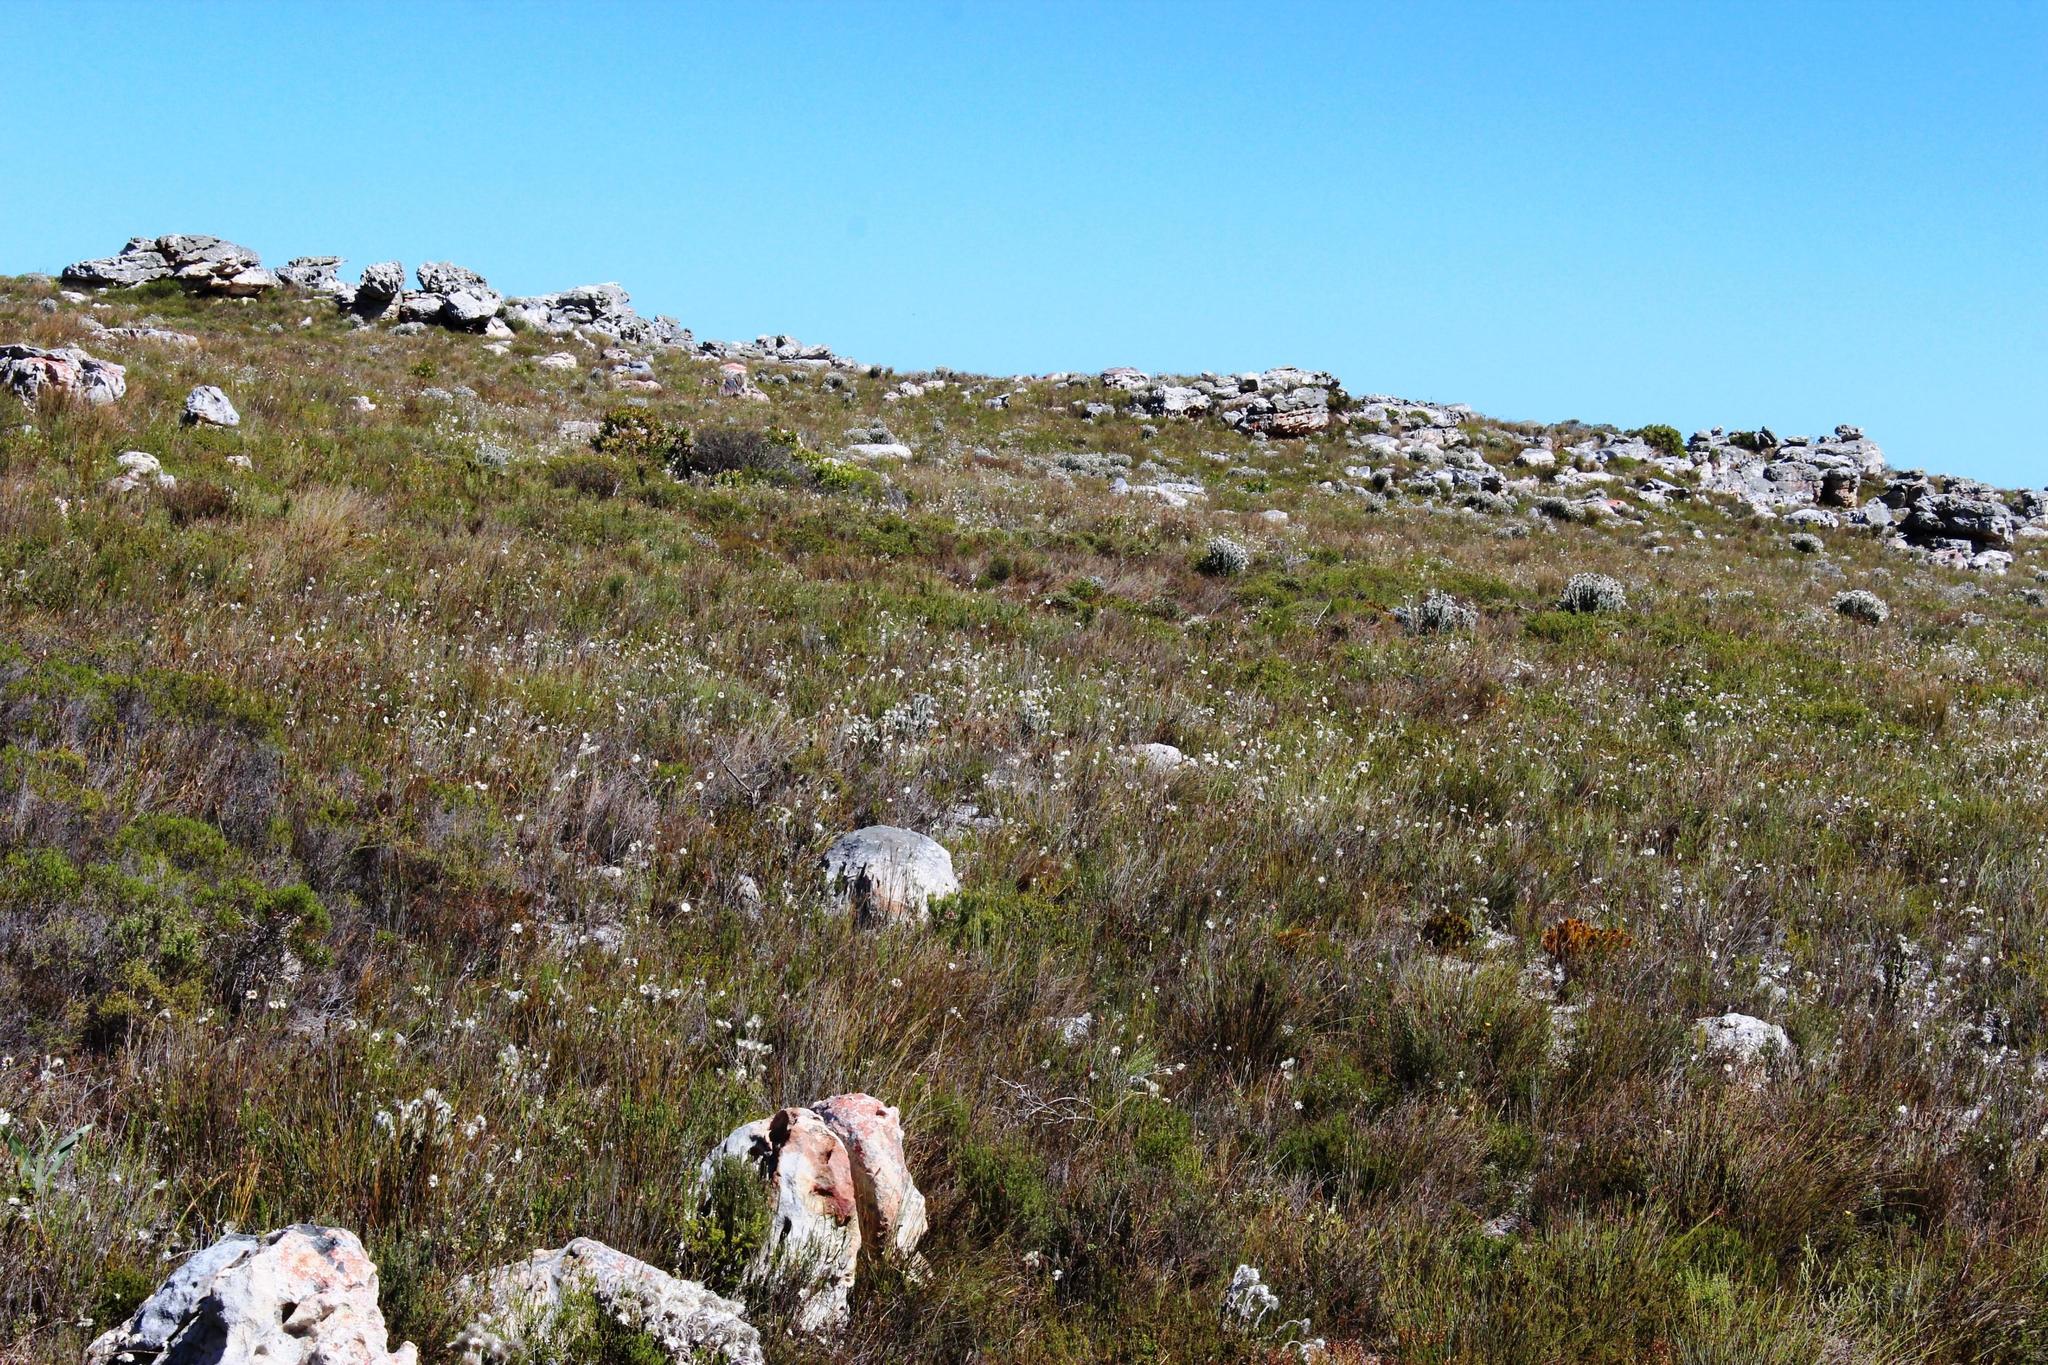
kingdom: Plantae
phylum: Tracheophyta
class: Magnoliopsida
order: Asterales
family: Asteraceae
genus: Edmondia
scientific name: Edmondia sesamoides
